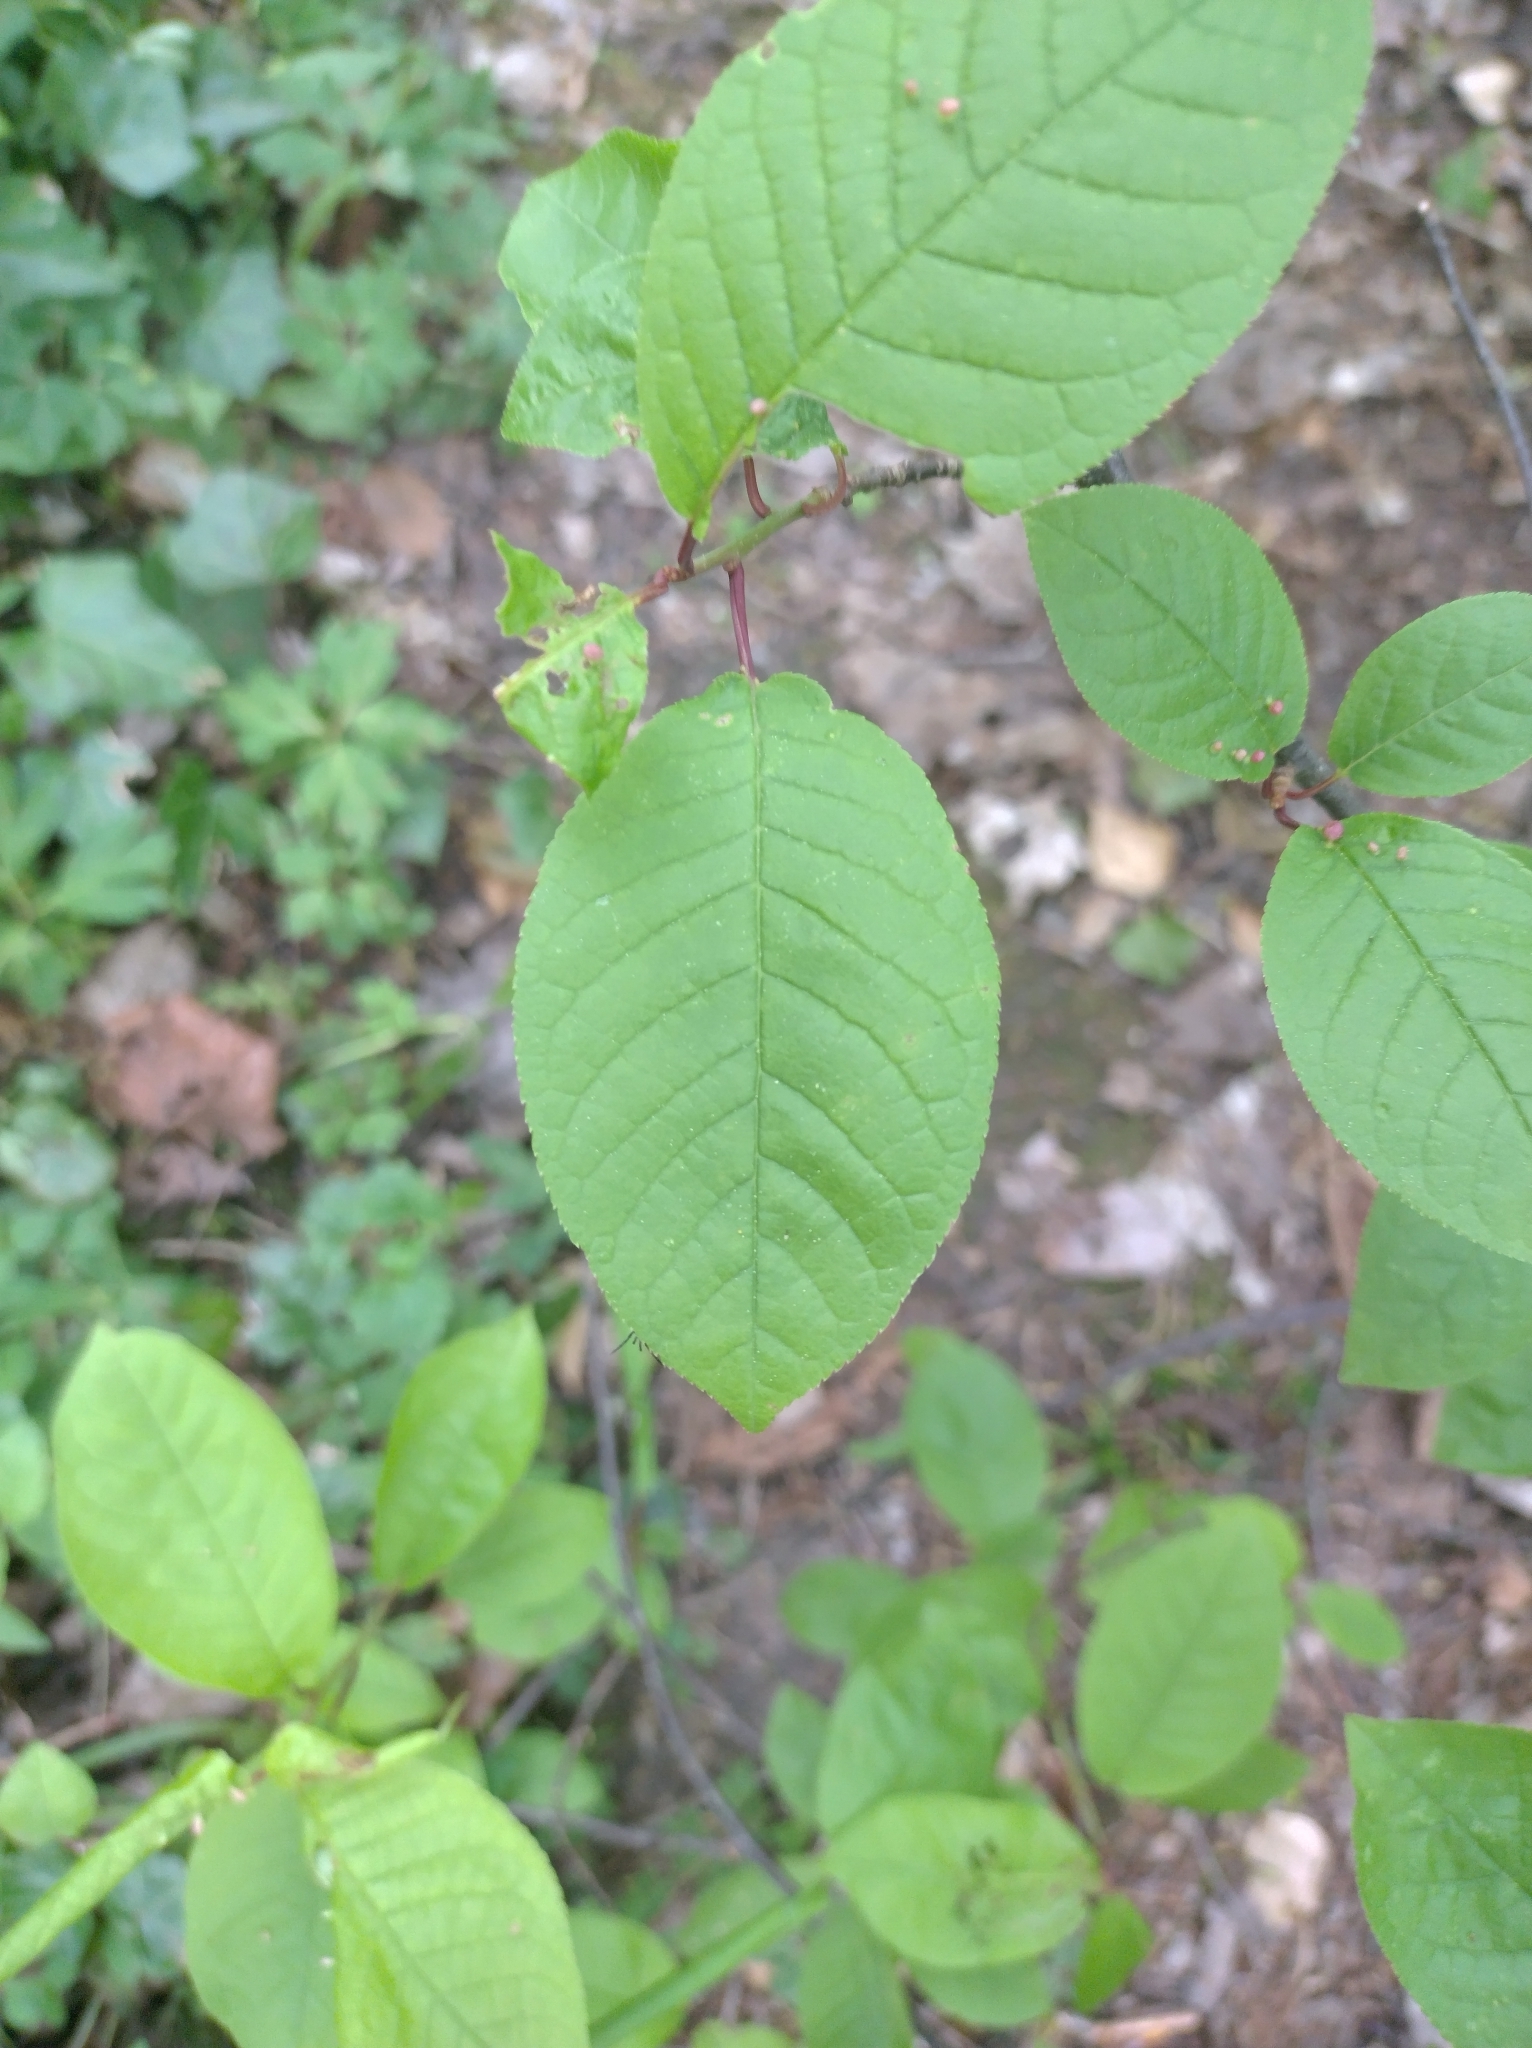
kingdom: Plantae
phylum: Tracheophyta
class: Magnoliopsida
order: Rosales
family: Rosaceae
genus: Prunus
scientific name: Prunus padus
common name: Bird cherry
